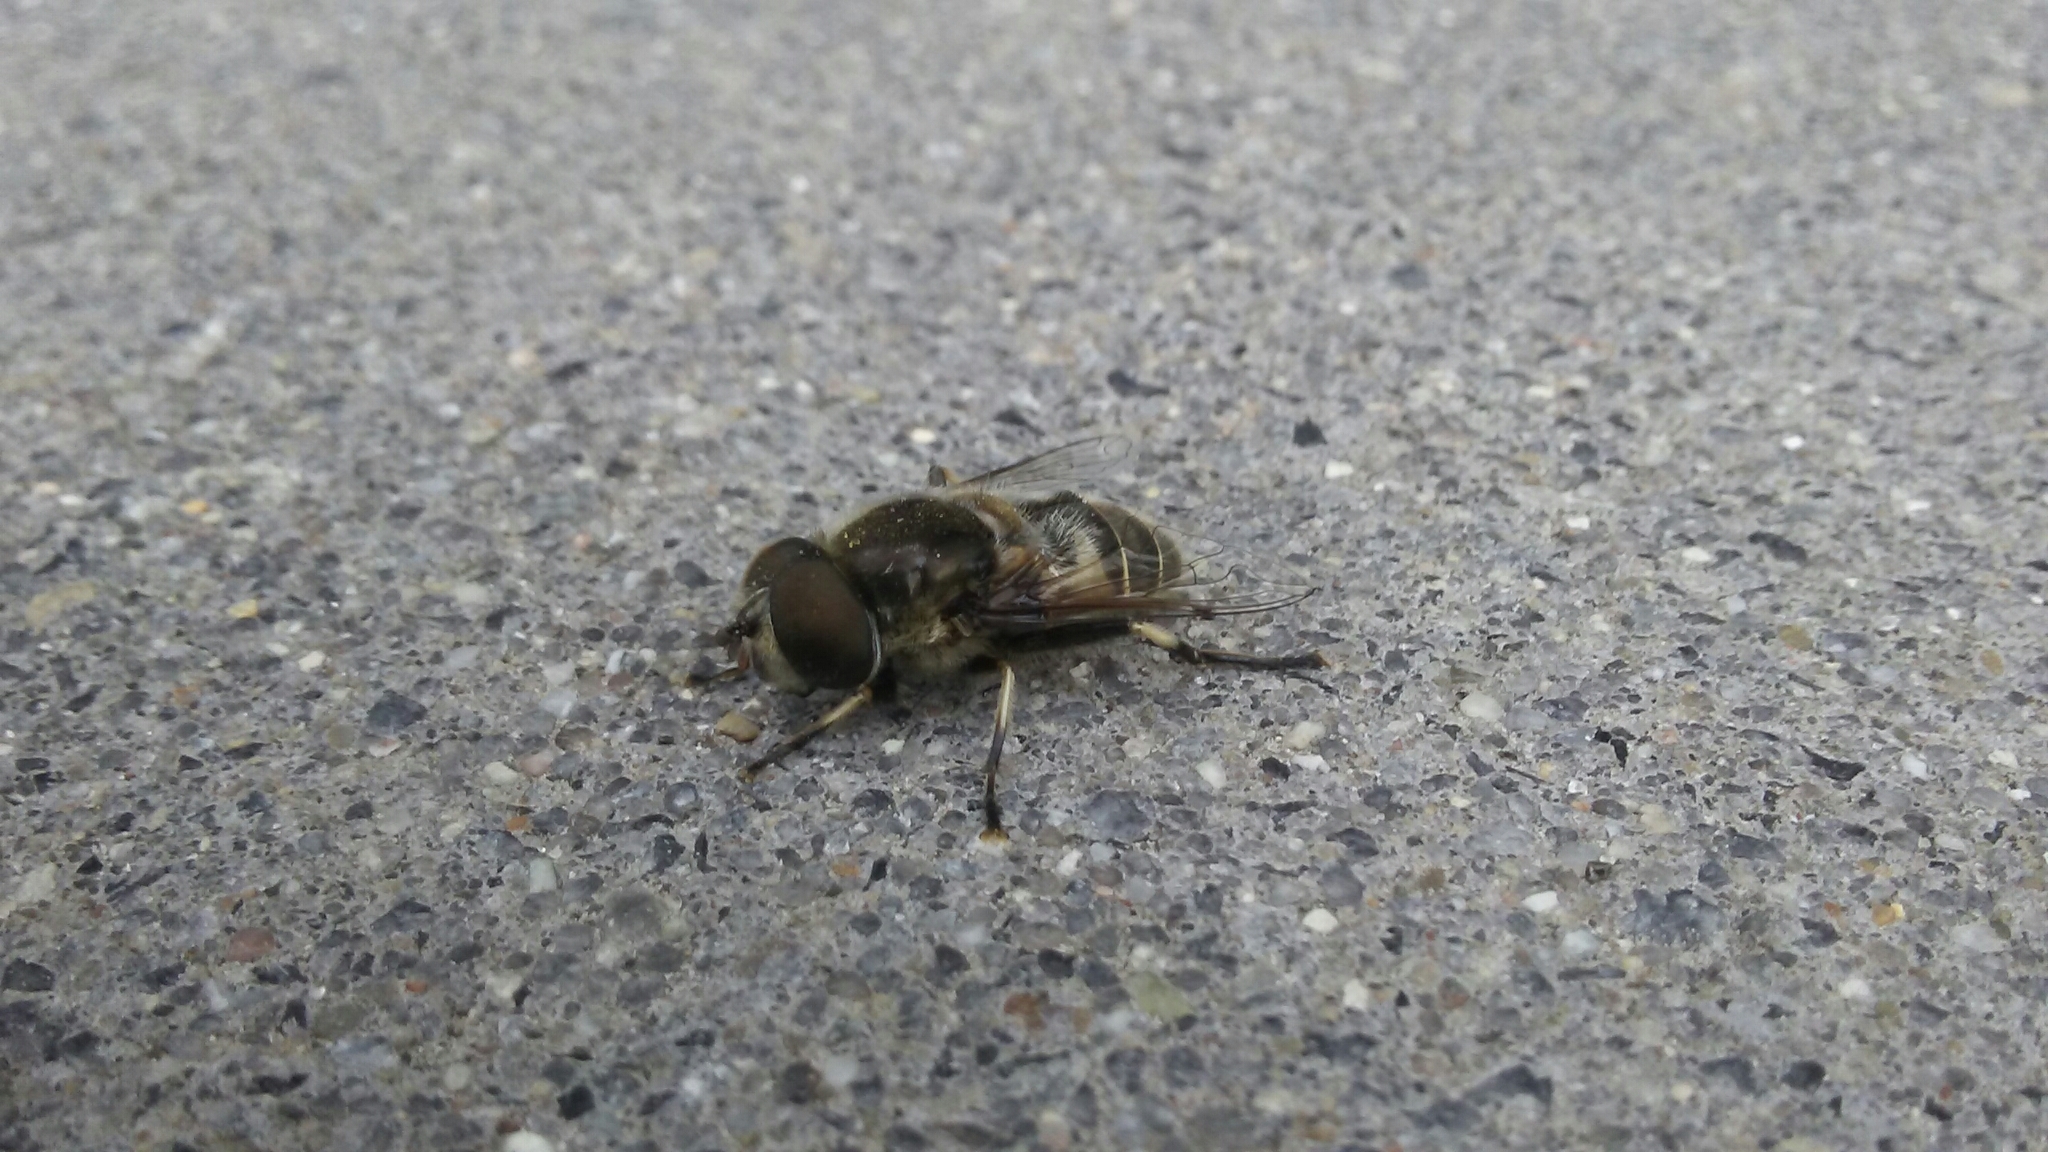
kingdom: Animalia
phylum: Arthropoda
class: Insecta
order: Diptera
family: Syrphidae
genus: Eristalis
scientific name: Eristalis dimidiata
